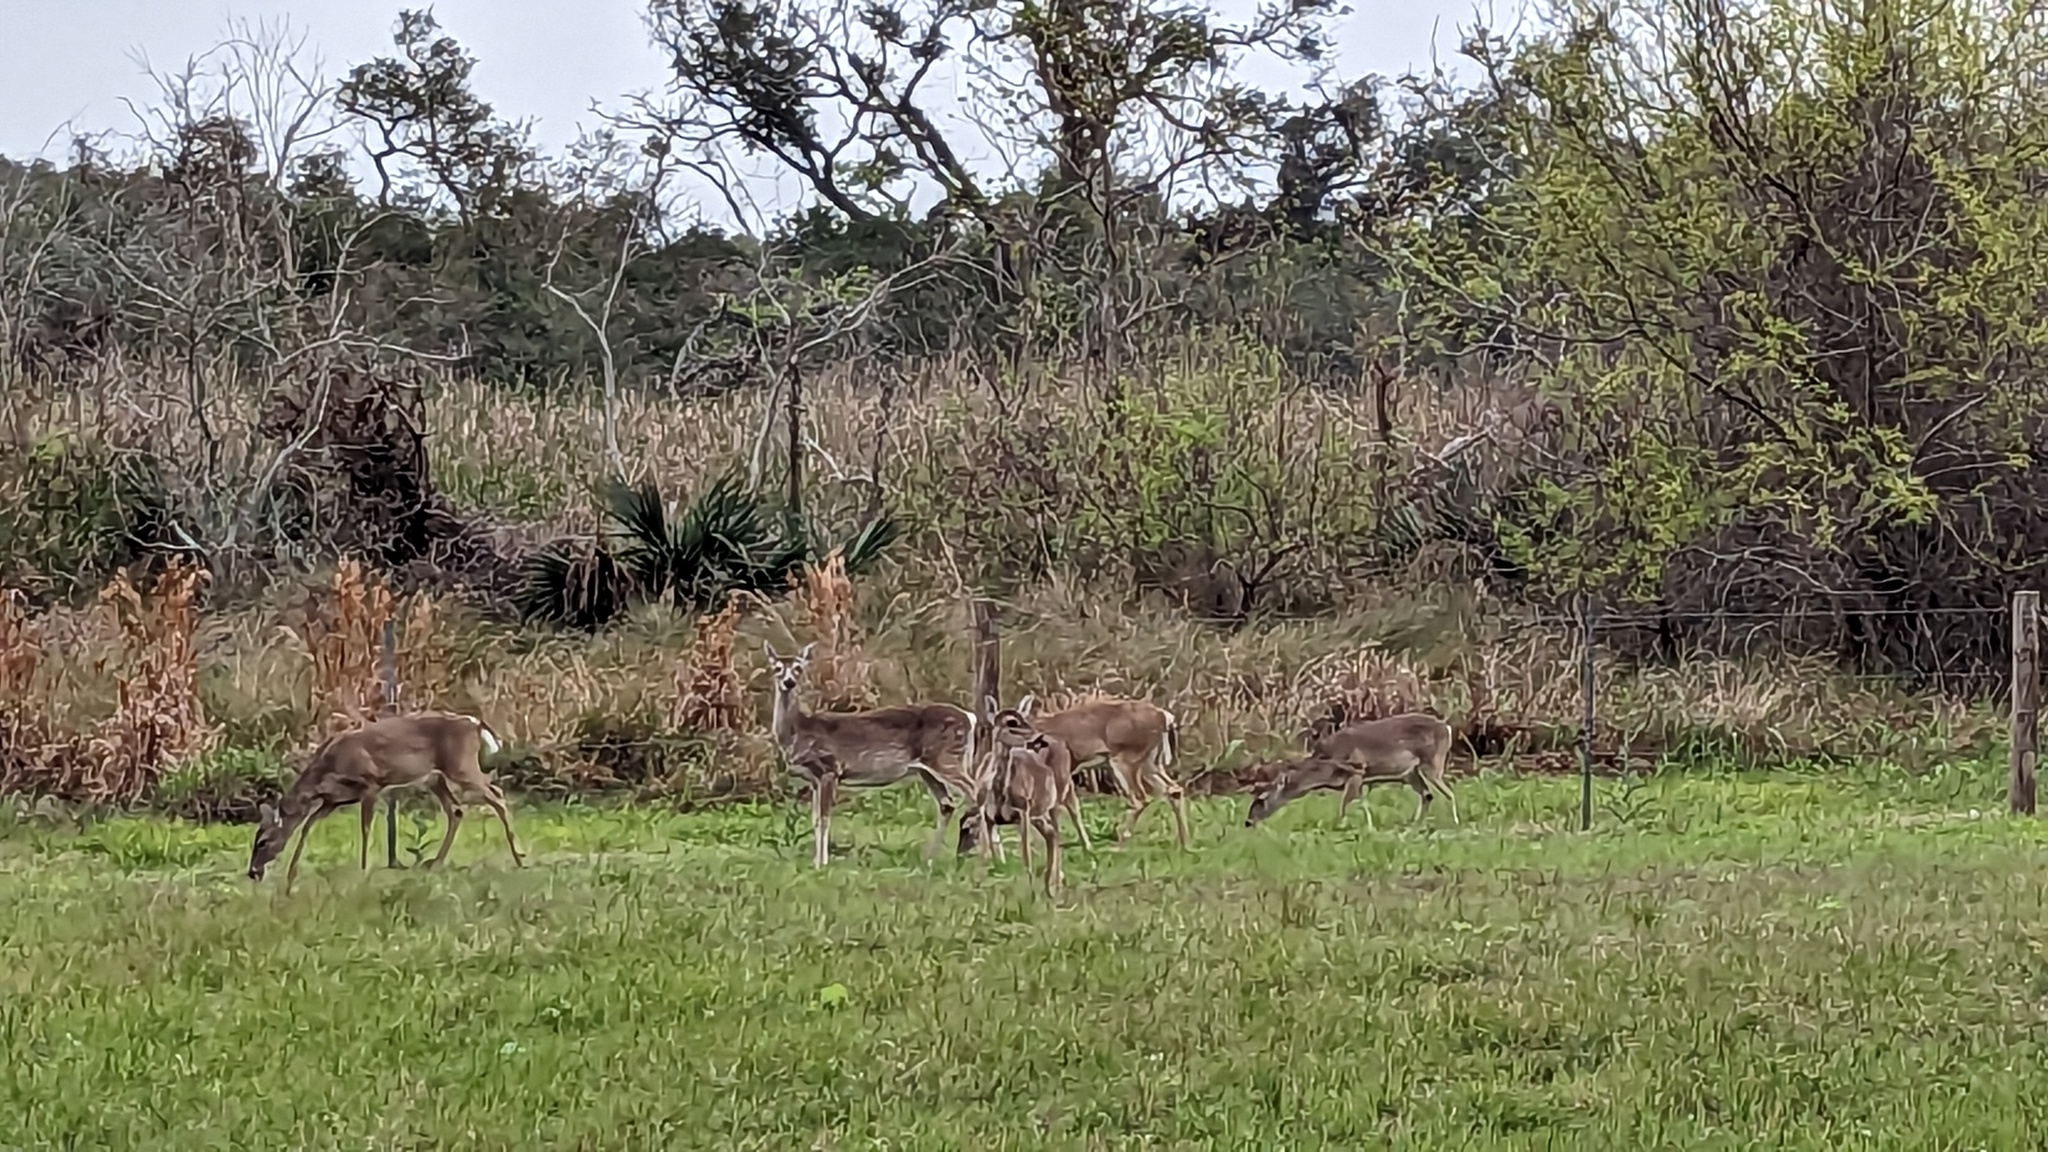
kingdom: Animalia
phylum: Chordata
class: Mammalia
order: Artiodactyla
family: Cervidae
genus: Odocoileus
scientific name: Odocoileus virginianus
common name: White-tailed deer
